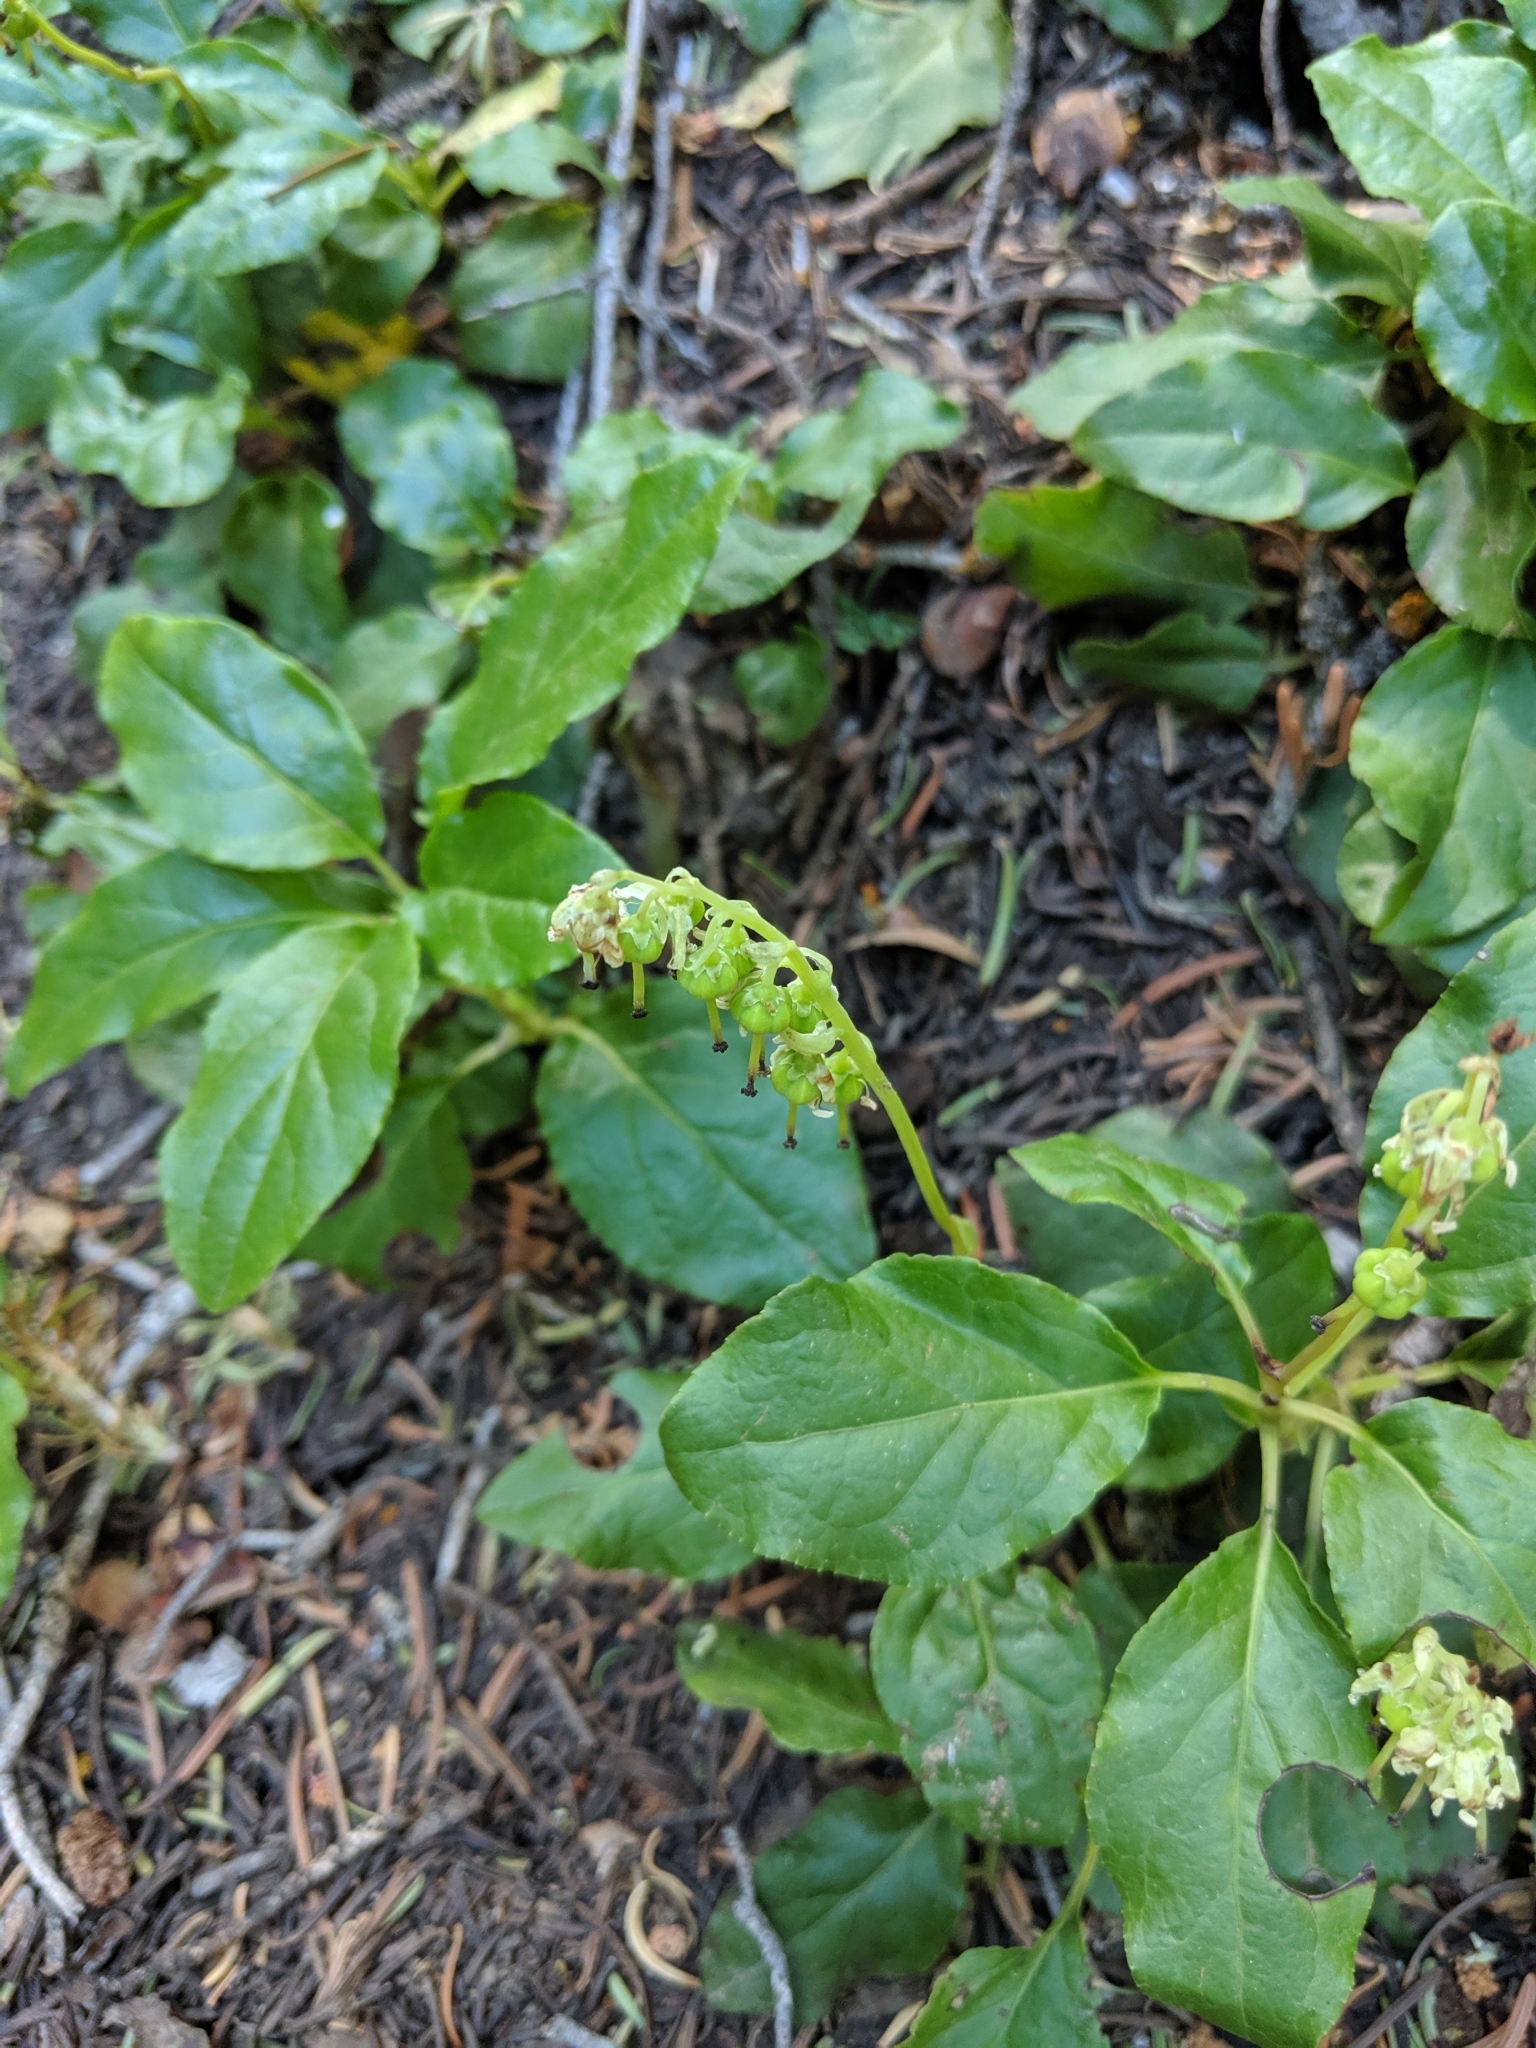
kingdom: Plantae
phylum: Tracheophyta
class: Magnoliopsida
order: Ericales
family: Ericaceae
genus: Orthilia
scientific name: Orthilia secunda
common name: One-sided orthilia
